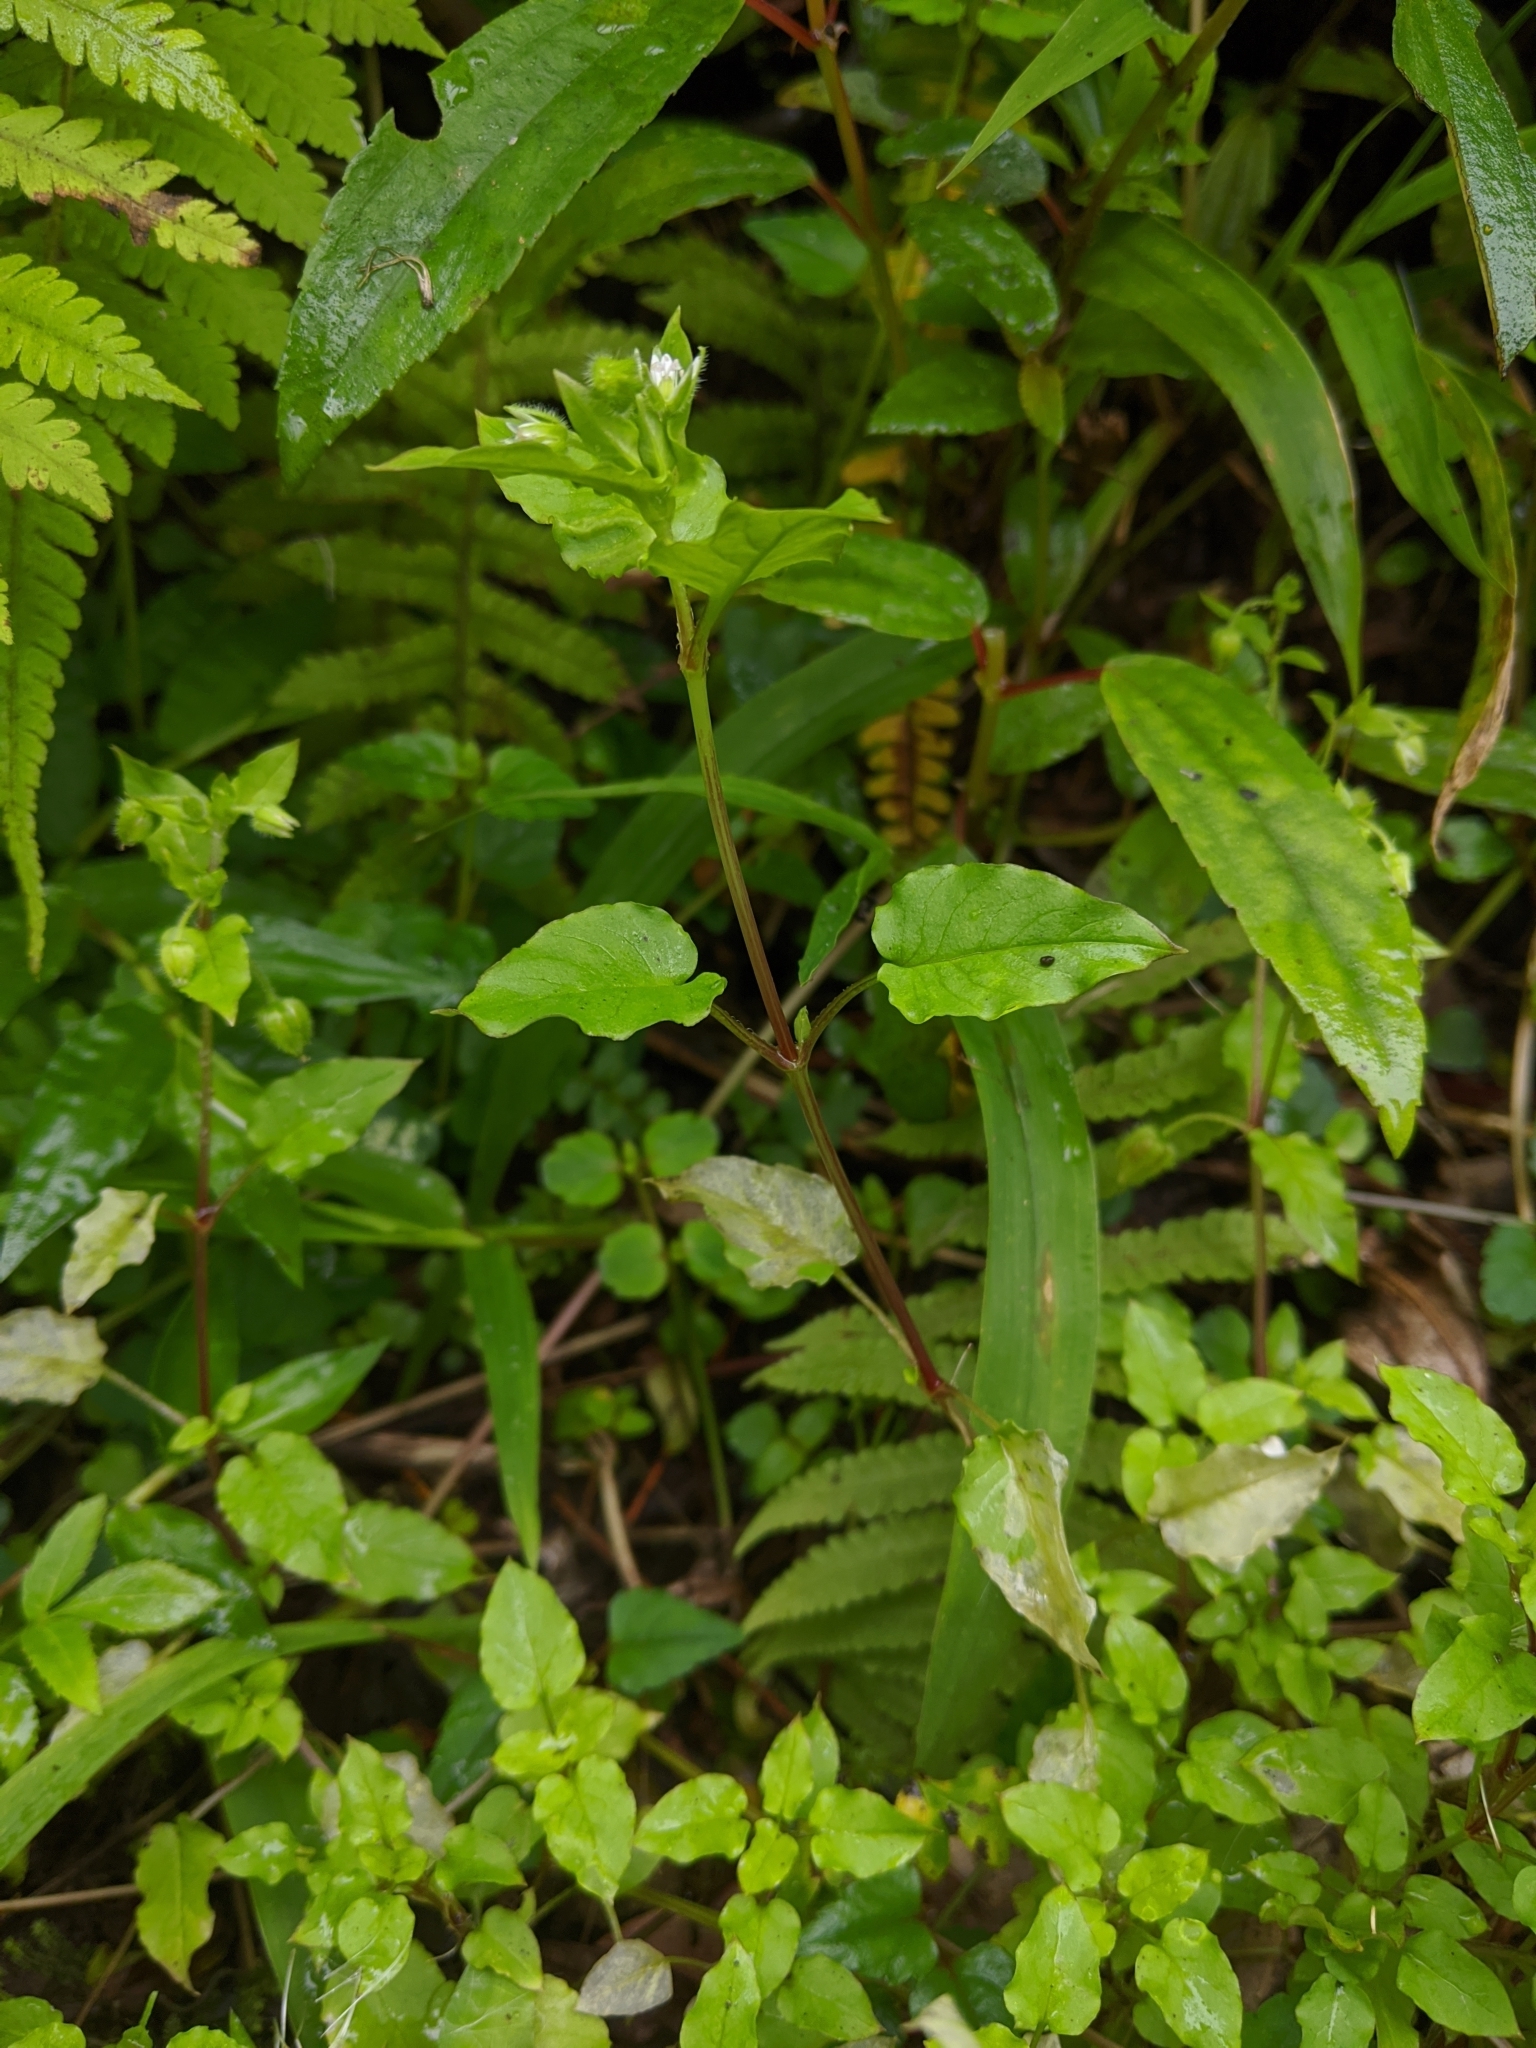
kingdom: Plantae
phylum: Tracheophyta
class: Magnoliopsida
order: Caryophyllales
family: Caryophyllaceae
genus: Stellaria
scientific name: Stellaria aquatica
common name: Water chickweed
